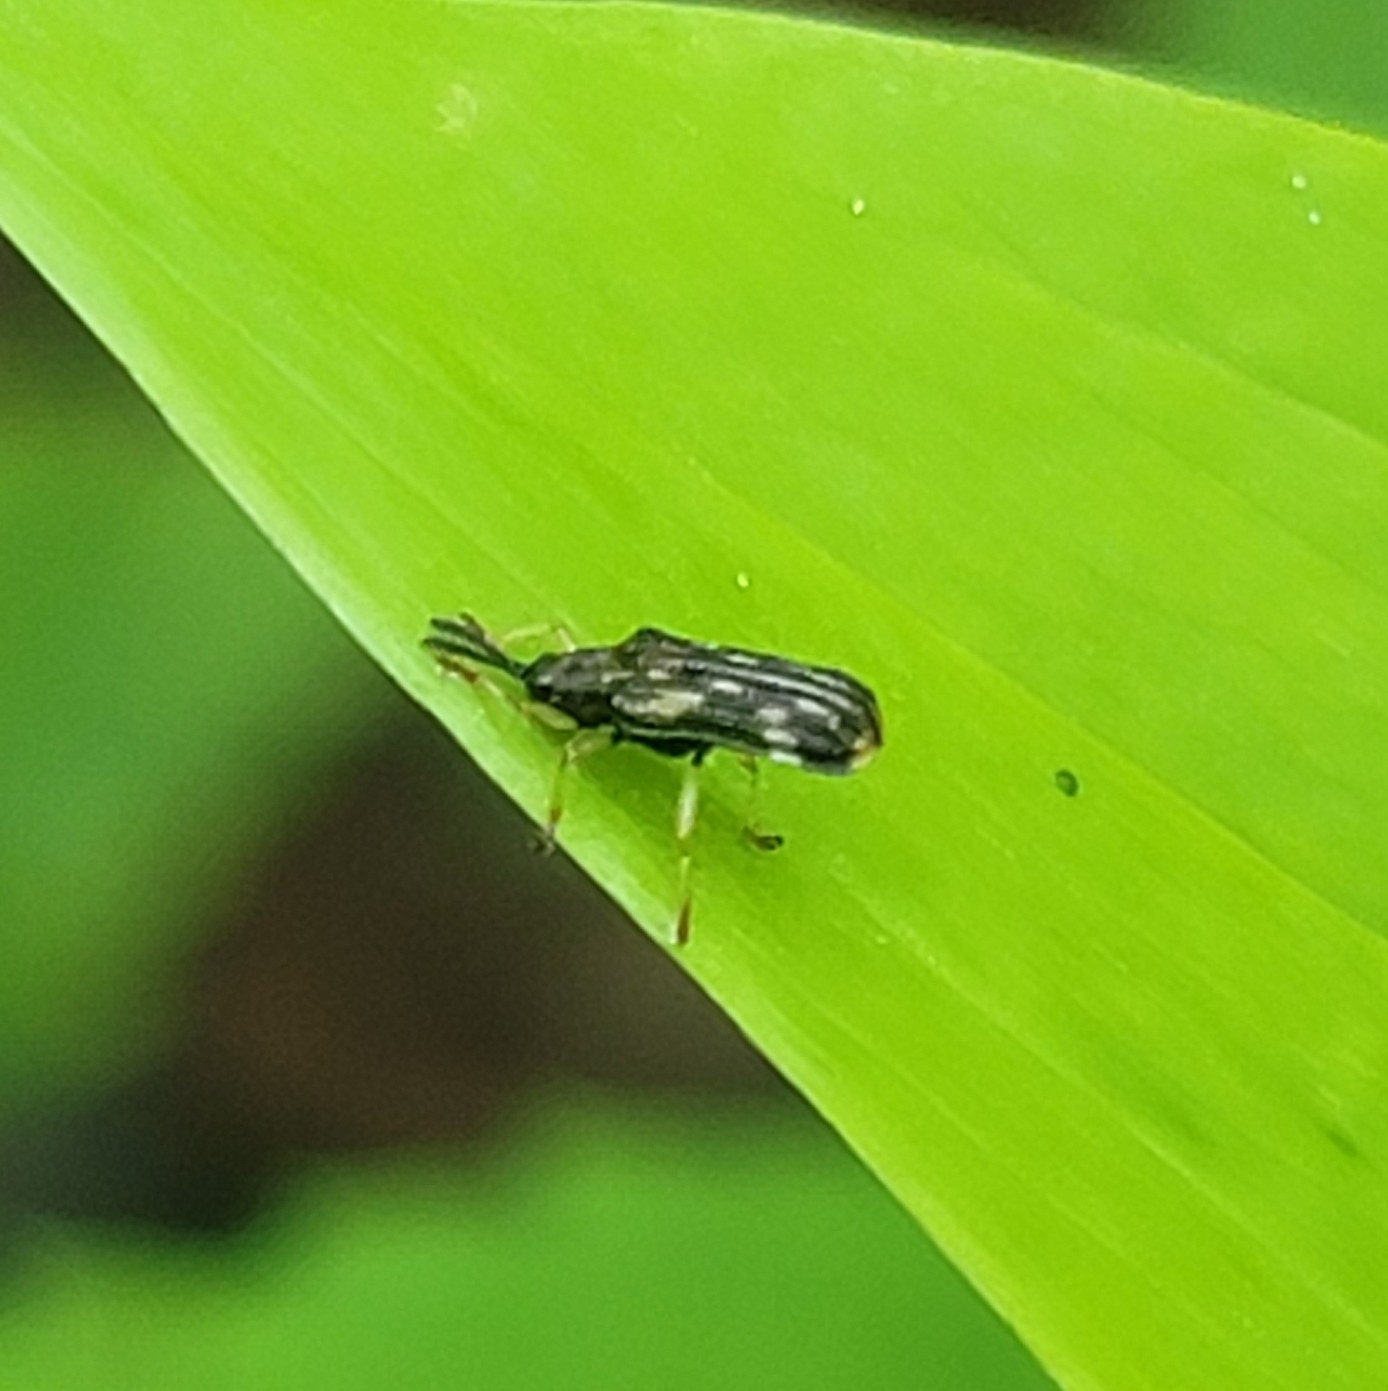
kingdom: Animalia
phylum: Arthropoda
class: Insecta
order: Coleoptera
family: Chrysomelidae
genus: Sumitrosis
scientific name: Sumitrosis inaequalis
